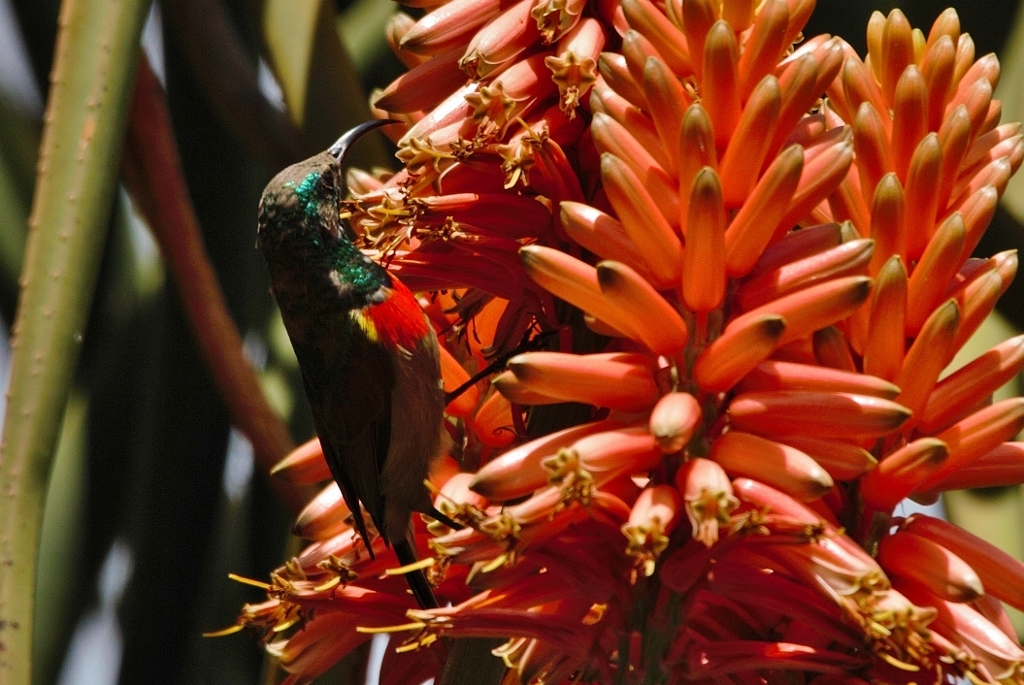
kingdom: Animalia
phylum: Chordata
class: Aves
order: Passeriformes
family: Nectariniidae
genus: Cinnyris
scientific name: Cinnyris manoensis
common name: Eastern miombo sunbird
